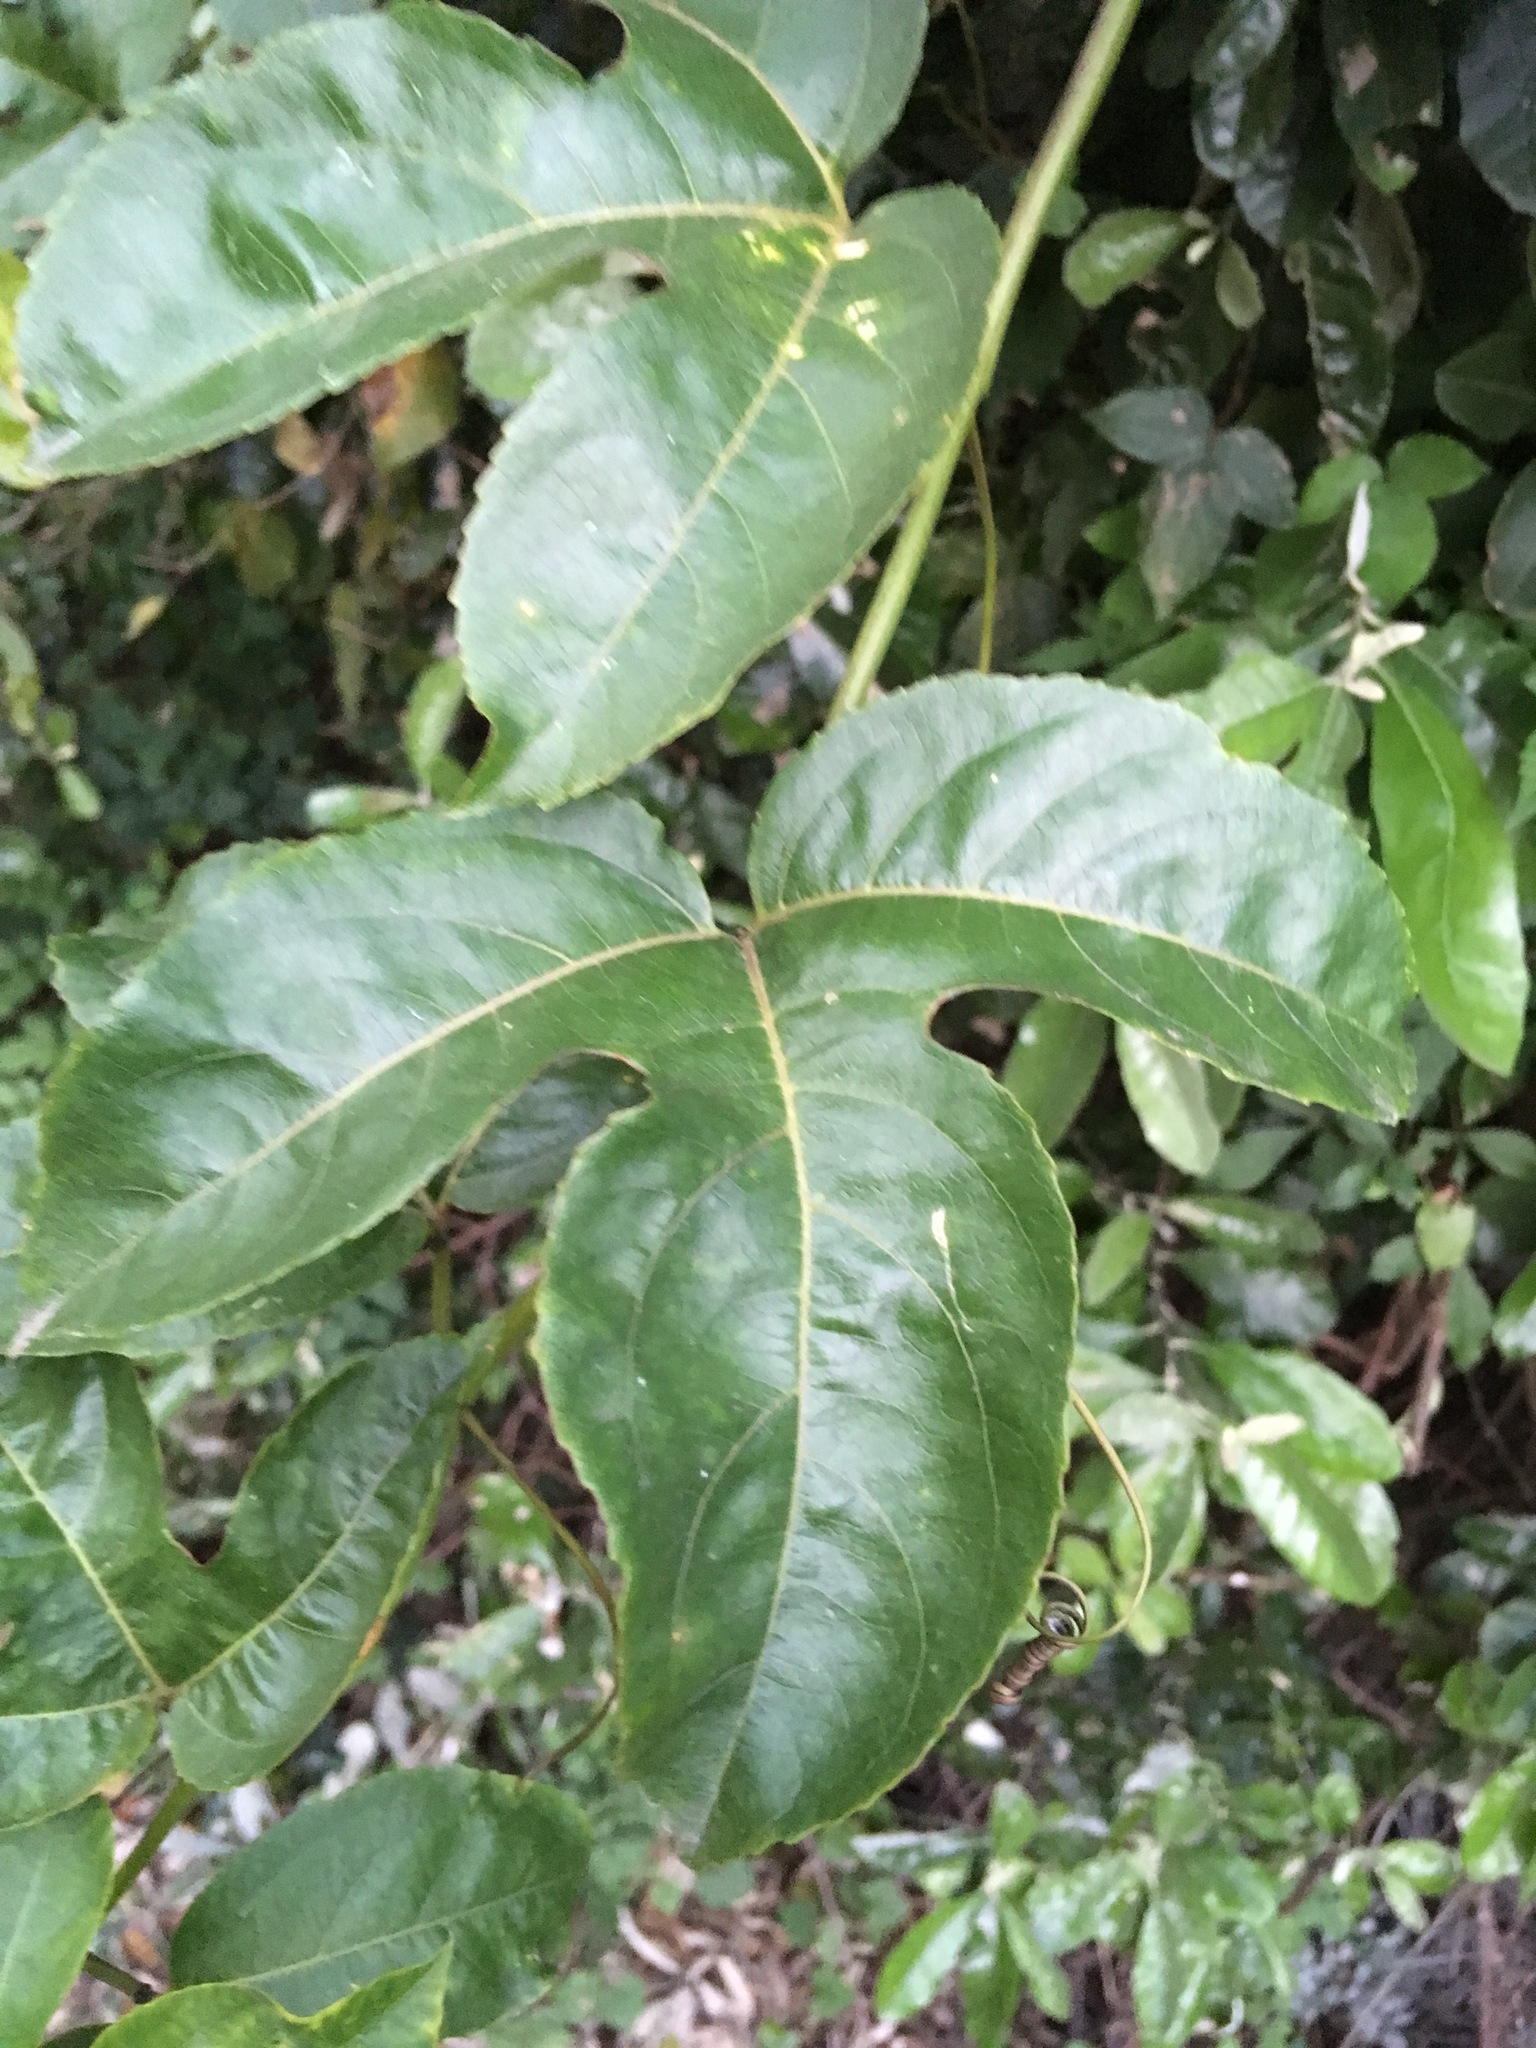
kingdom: Plantae
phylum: Tracheophyta
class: Magnoliopsida
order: Malpighiales
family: Passifloraceae
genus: Passiflora
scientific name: Passiflora edulis
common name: Purple granadilla
